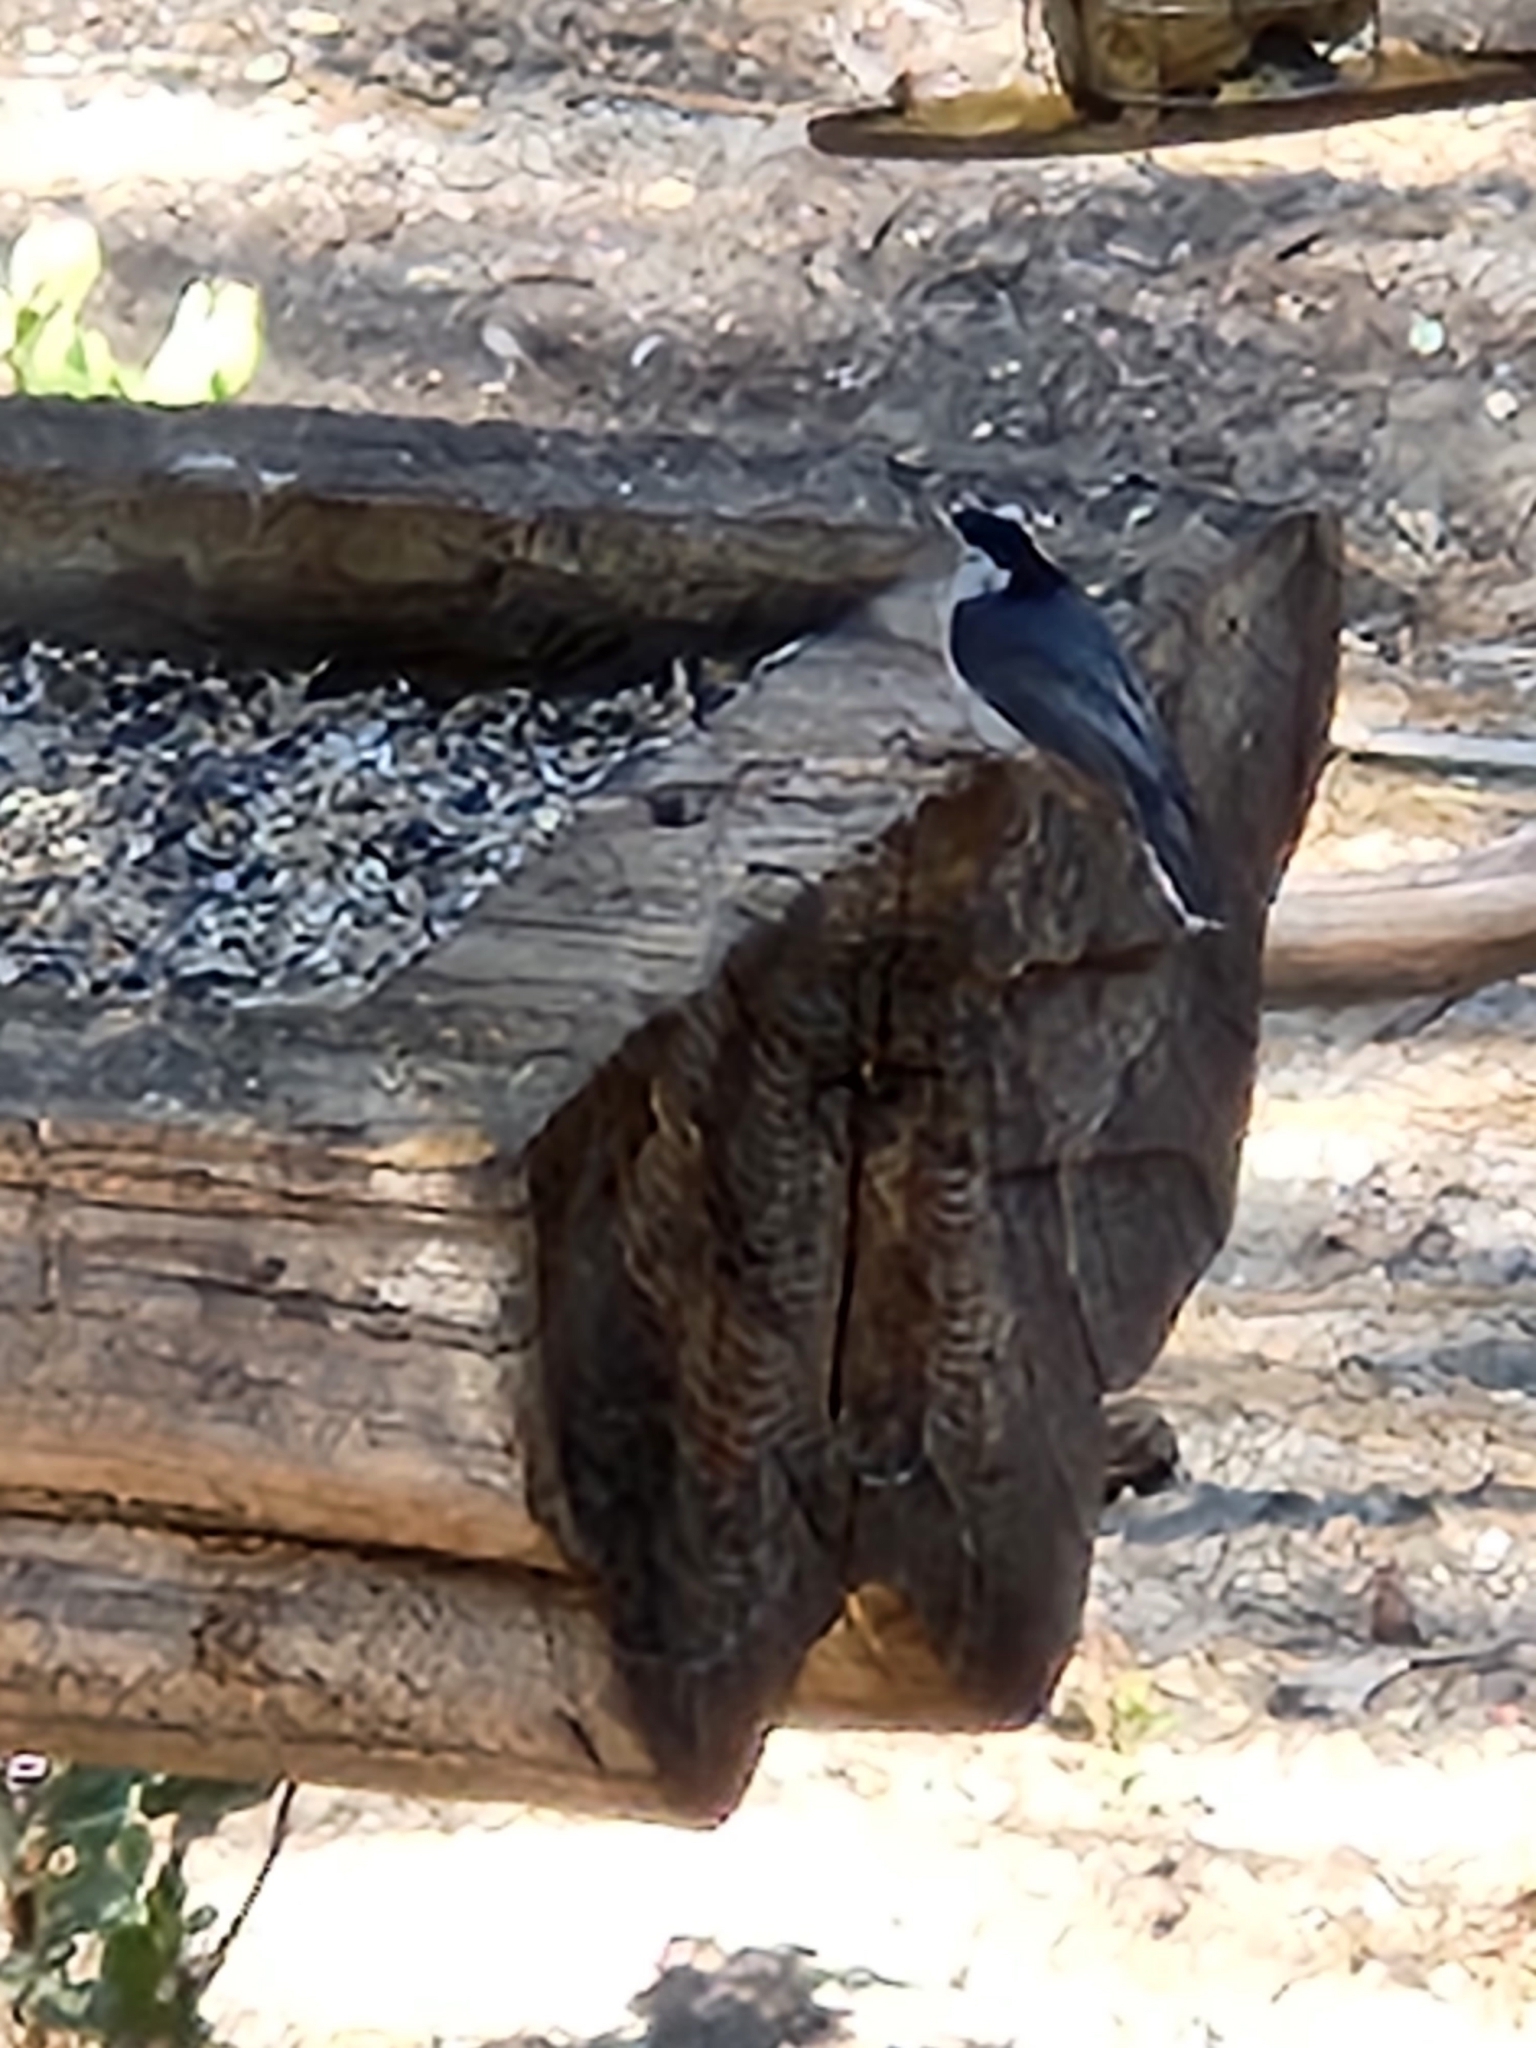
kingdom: Animalia
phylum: Chordata
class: Aves
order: Passeriformes
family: Sittidae
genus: Sitta
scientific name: Sitta carolinensis
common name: White-breasted nuthatch
